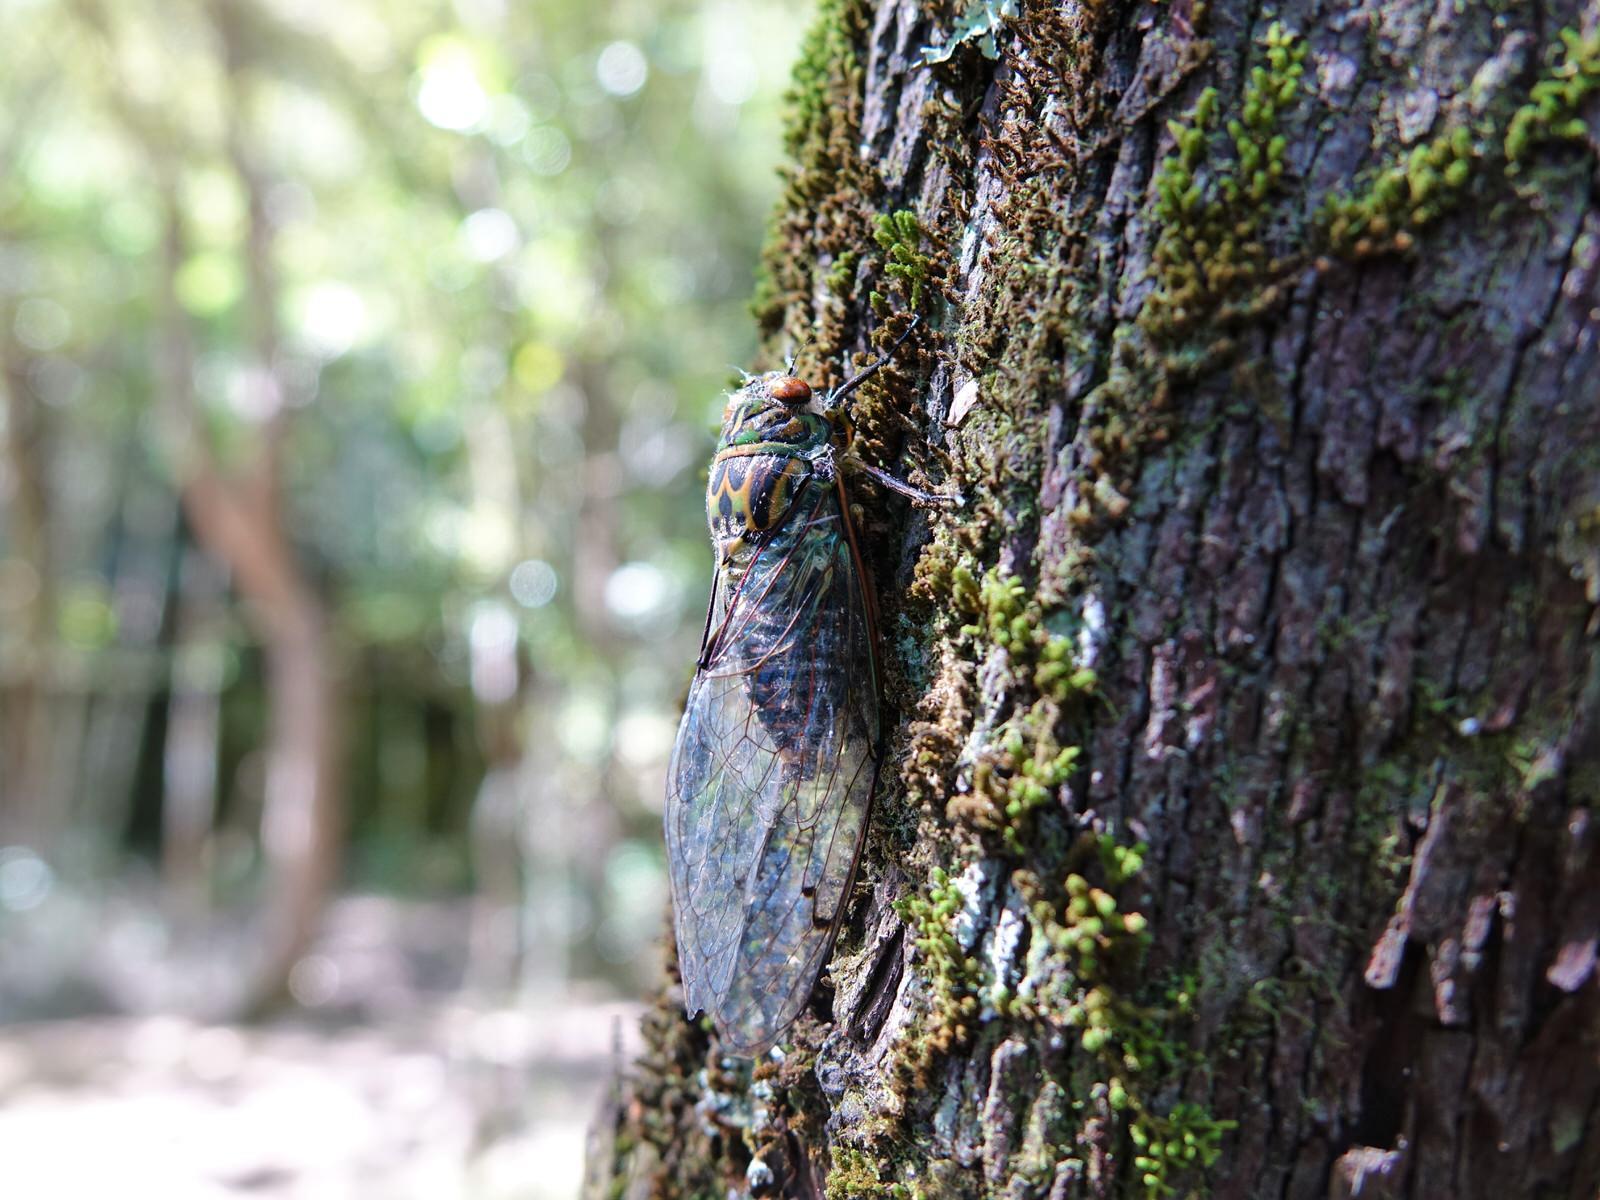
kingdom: Animalia
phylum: Arthropoda
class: Insecta
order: Hemiptera
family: Cicadidae
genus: Amphipsalta
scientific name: Amphipsalta zelandica
